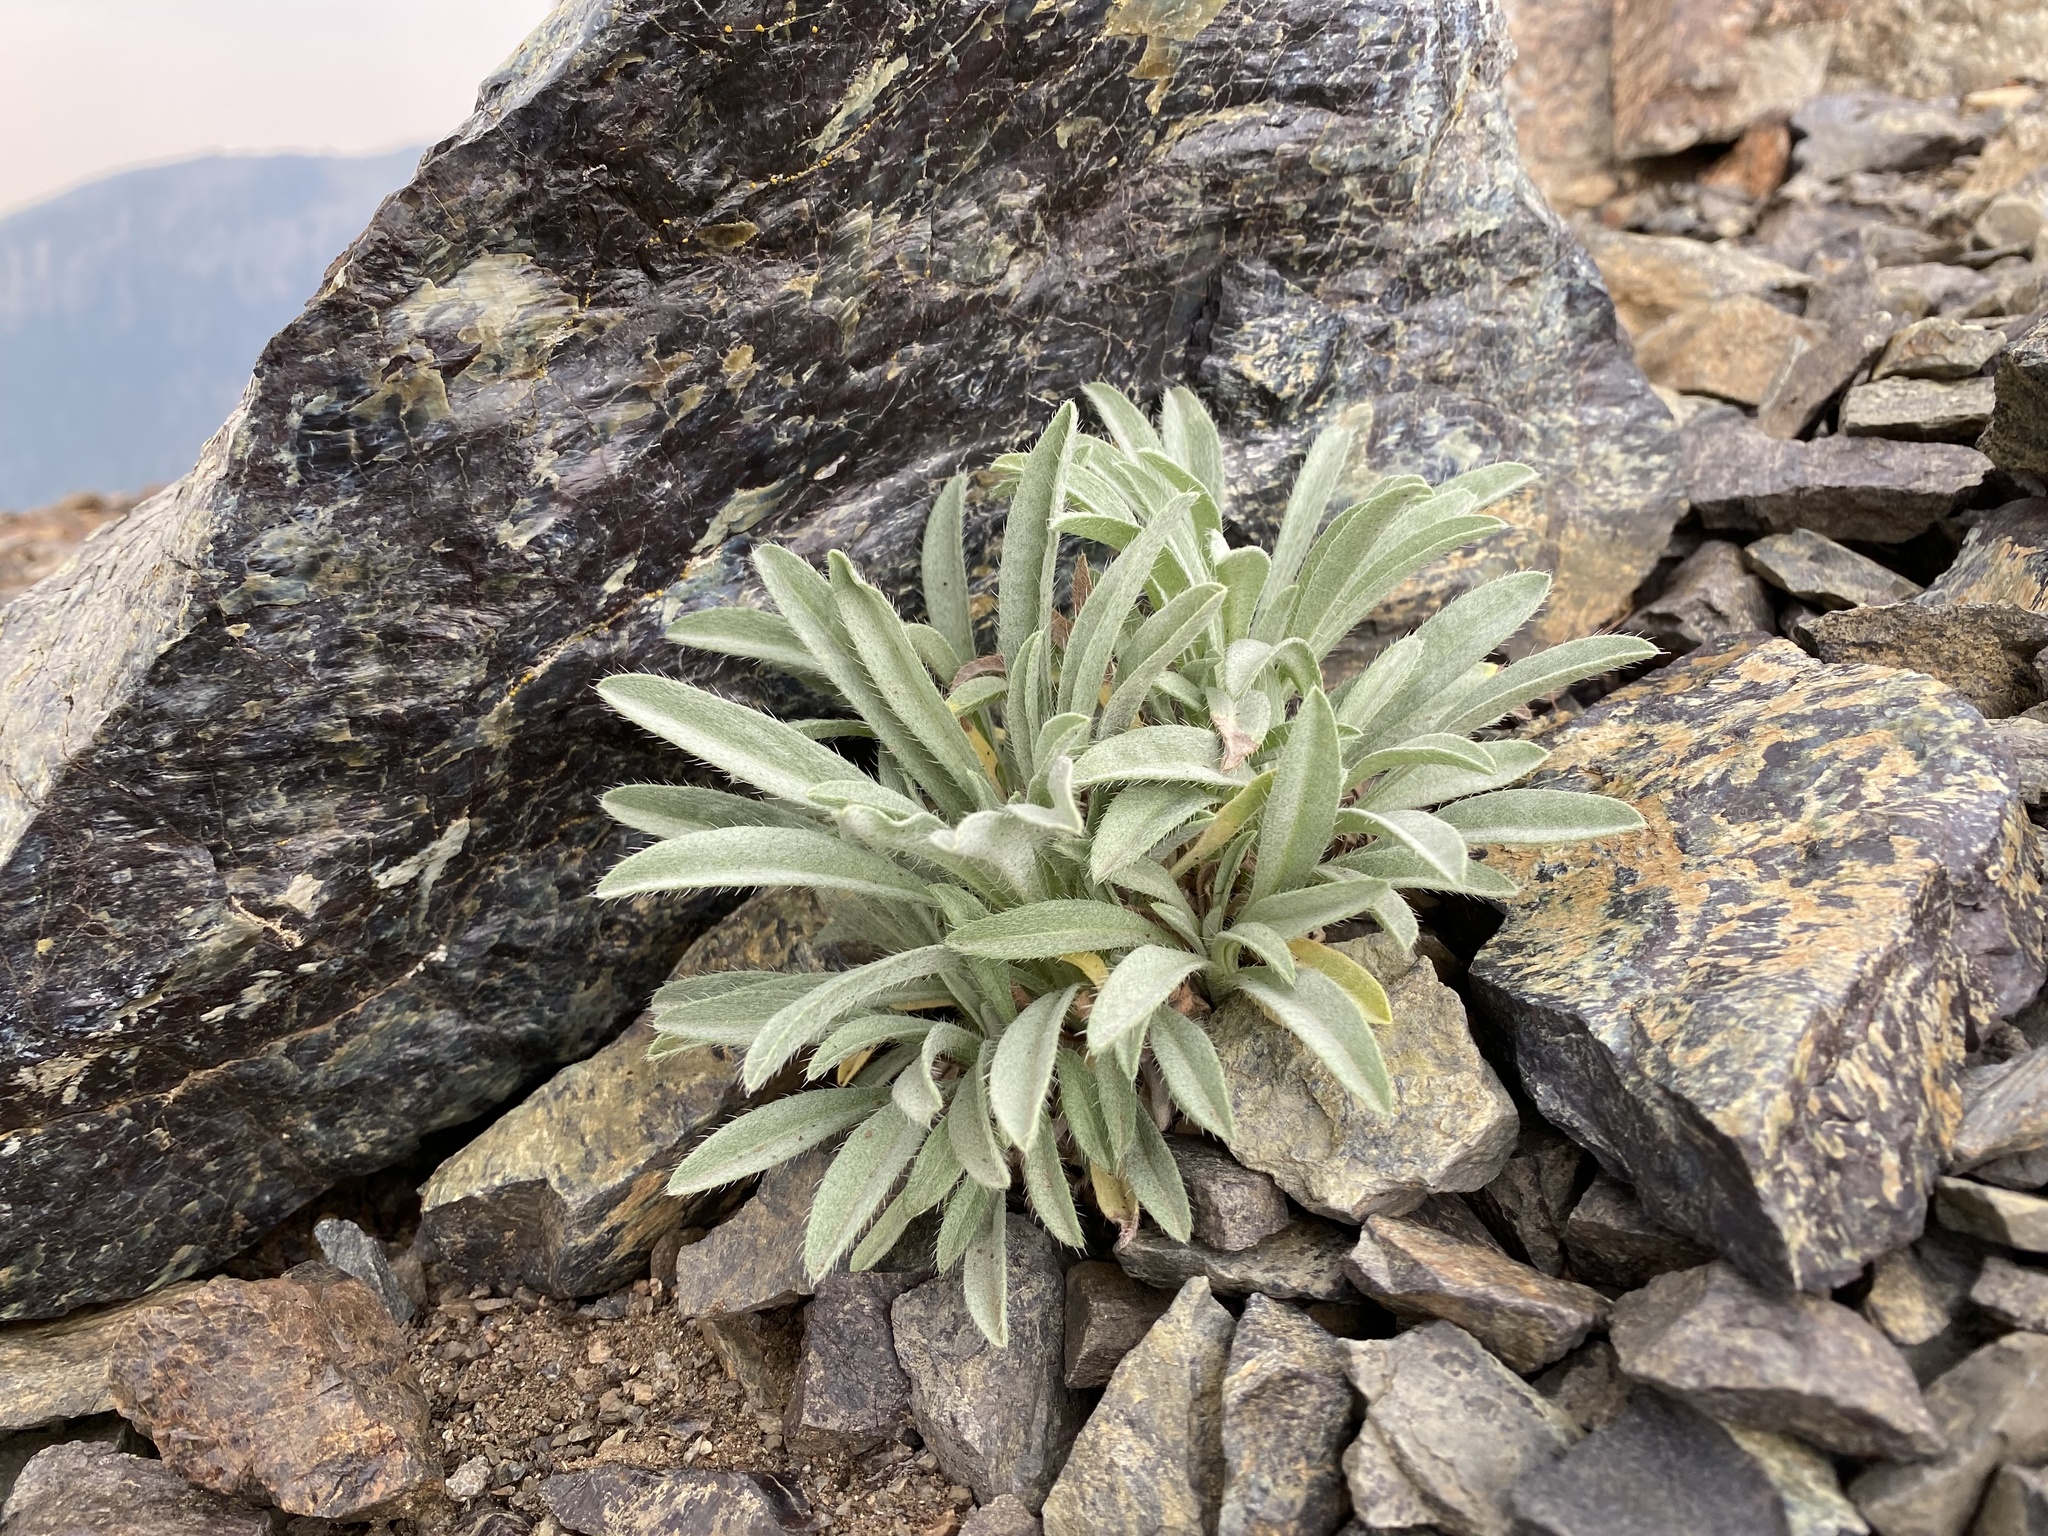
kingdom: Plantae
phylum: Tracheophyta
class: Magnoliopsida
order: Boraginales
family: Boraginaceae
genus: Oreocarya
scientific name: Oreocarya thompsonii
